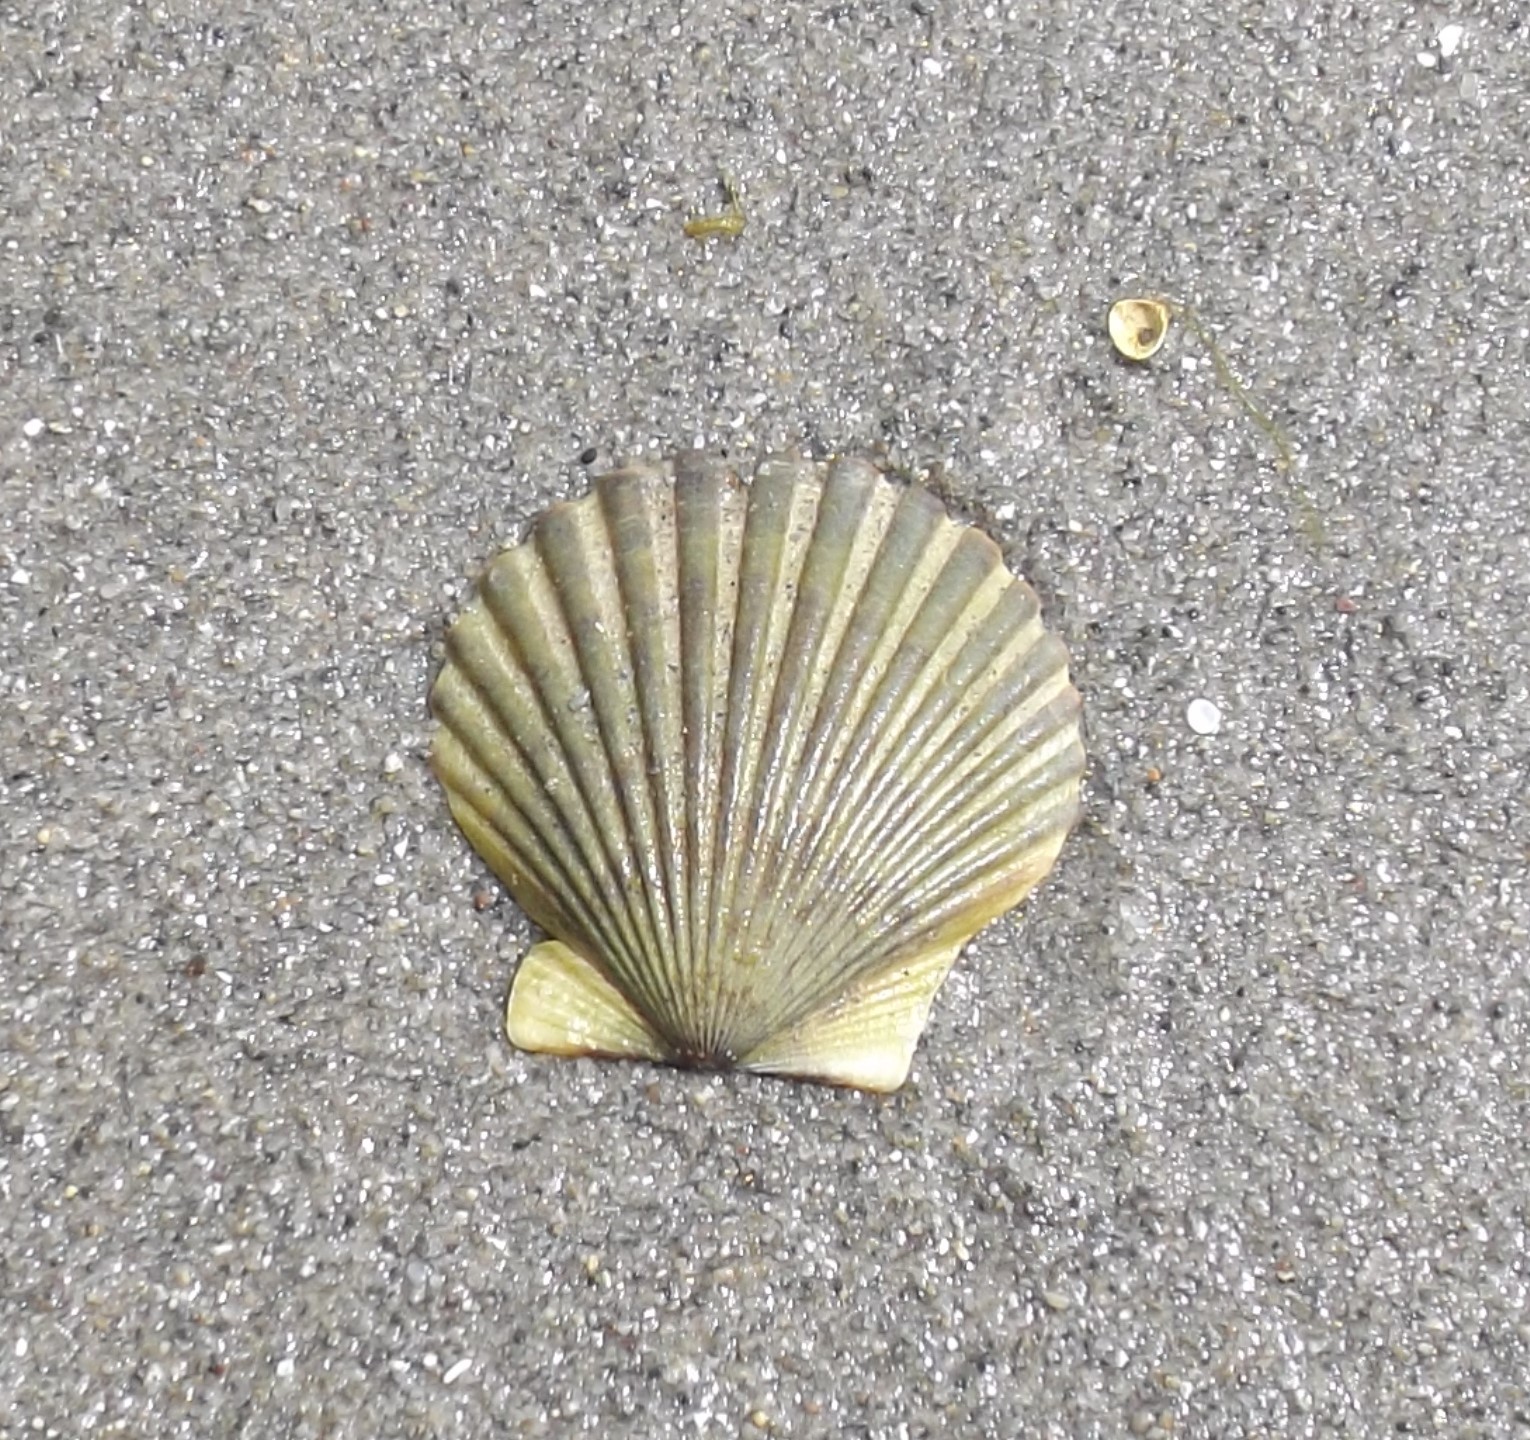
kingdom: Animalia
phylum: Mollusca
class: Bivalvia
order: Pectinida
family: Pectinidae
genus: Argopecten
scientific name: Argopecten irradians
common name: Atlantic bay scallop
